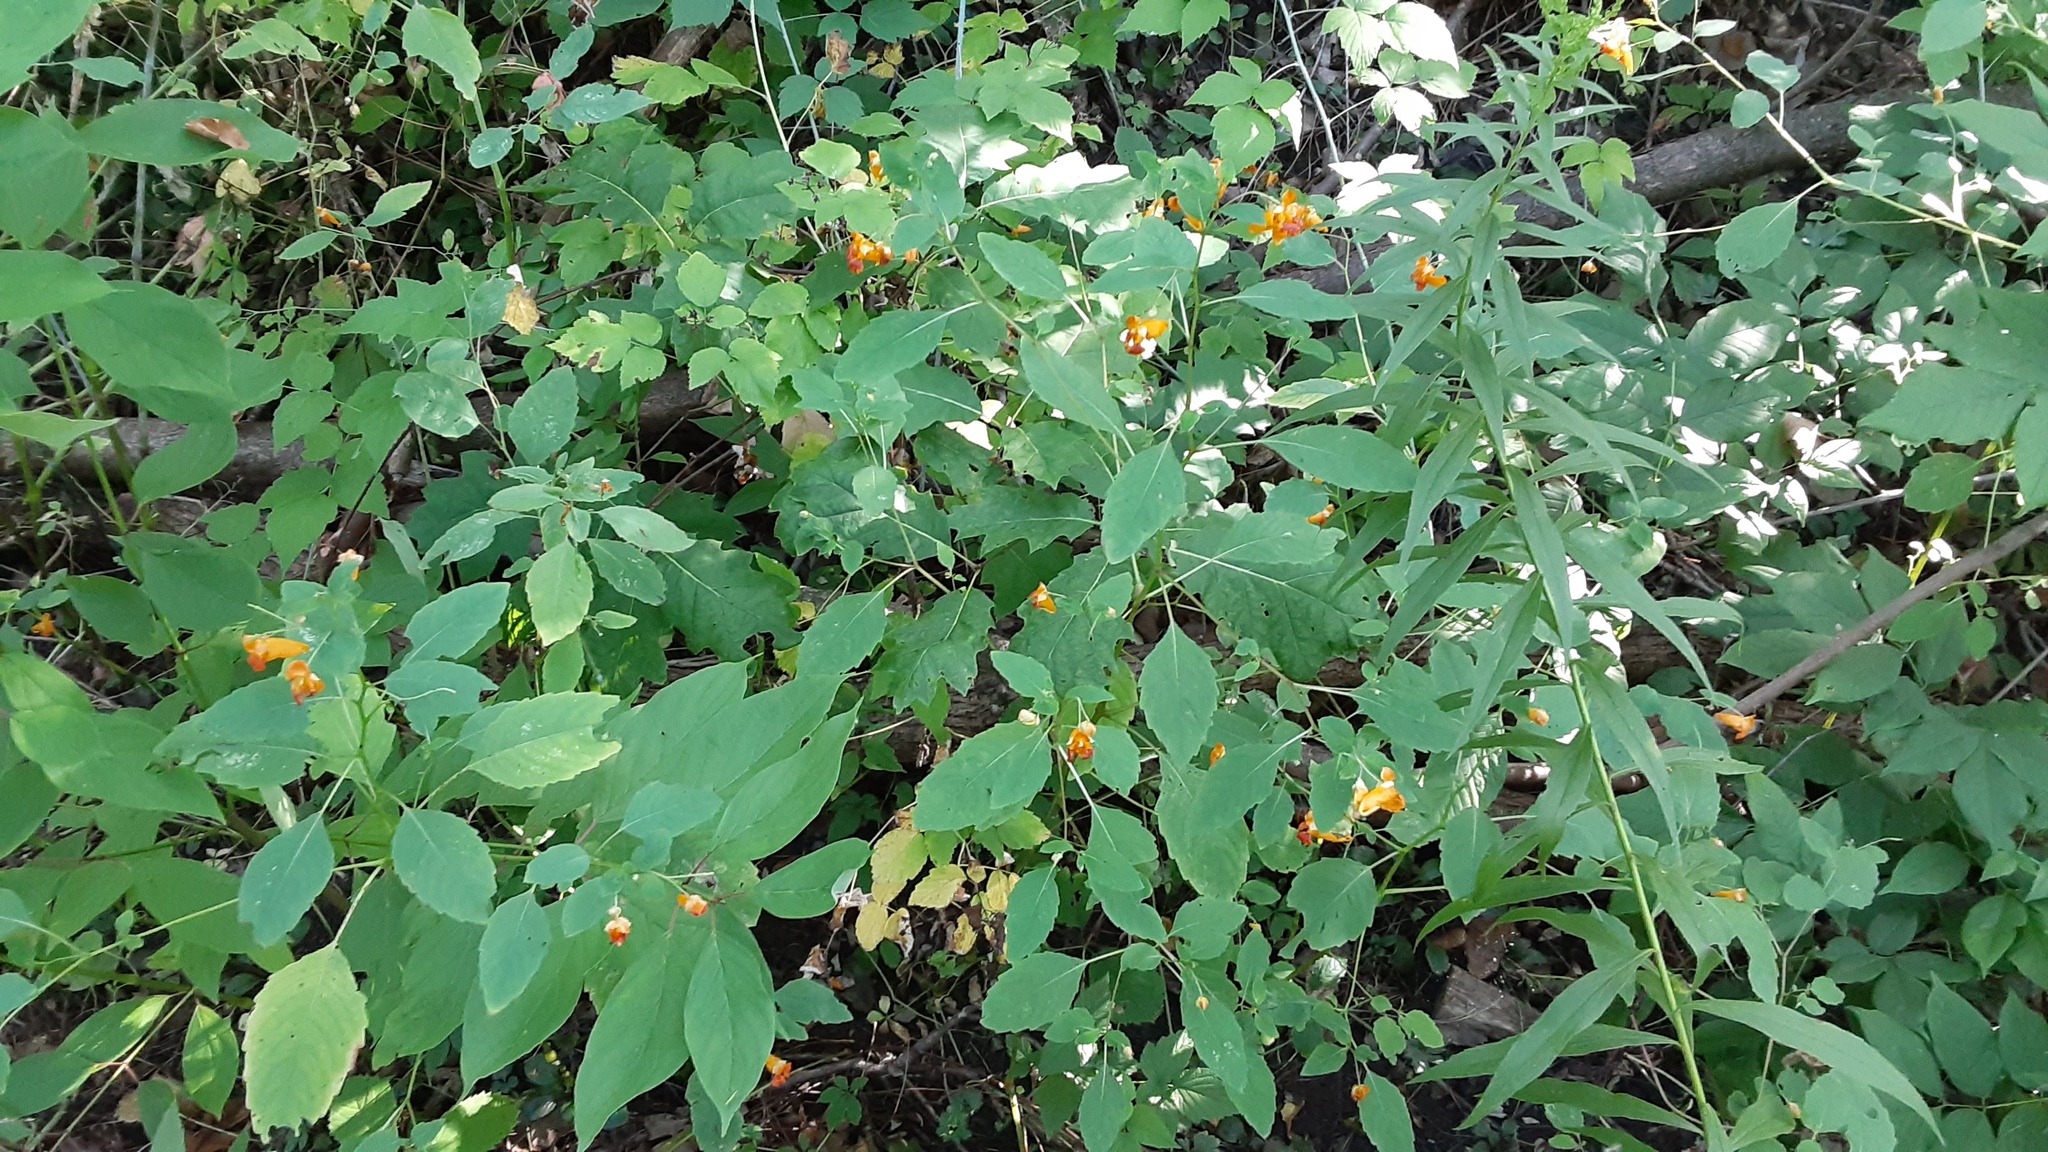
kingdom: Plantae
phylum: Tracheophyta
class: Magnoliopsida
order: Ericales
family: Balsaminaceae
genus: Impatiens
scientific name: Impatiens capensis
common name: Orange balsam
